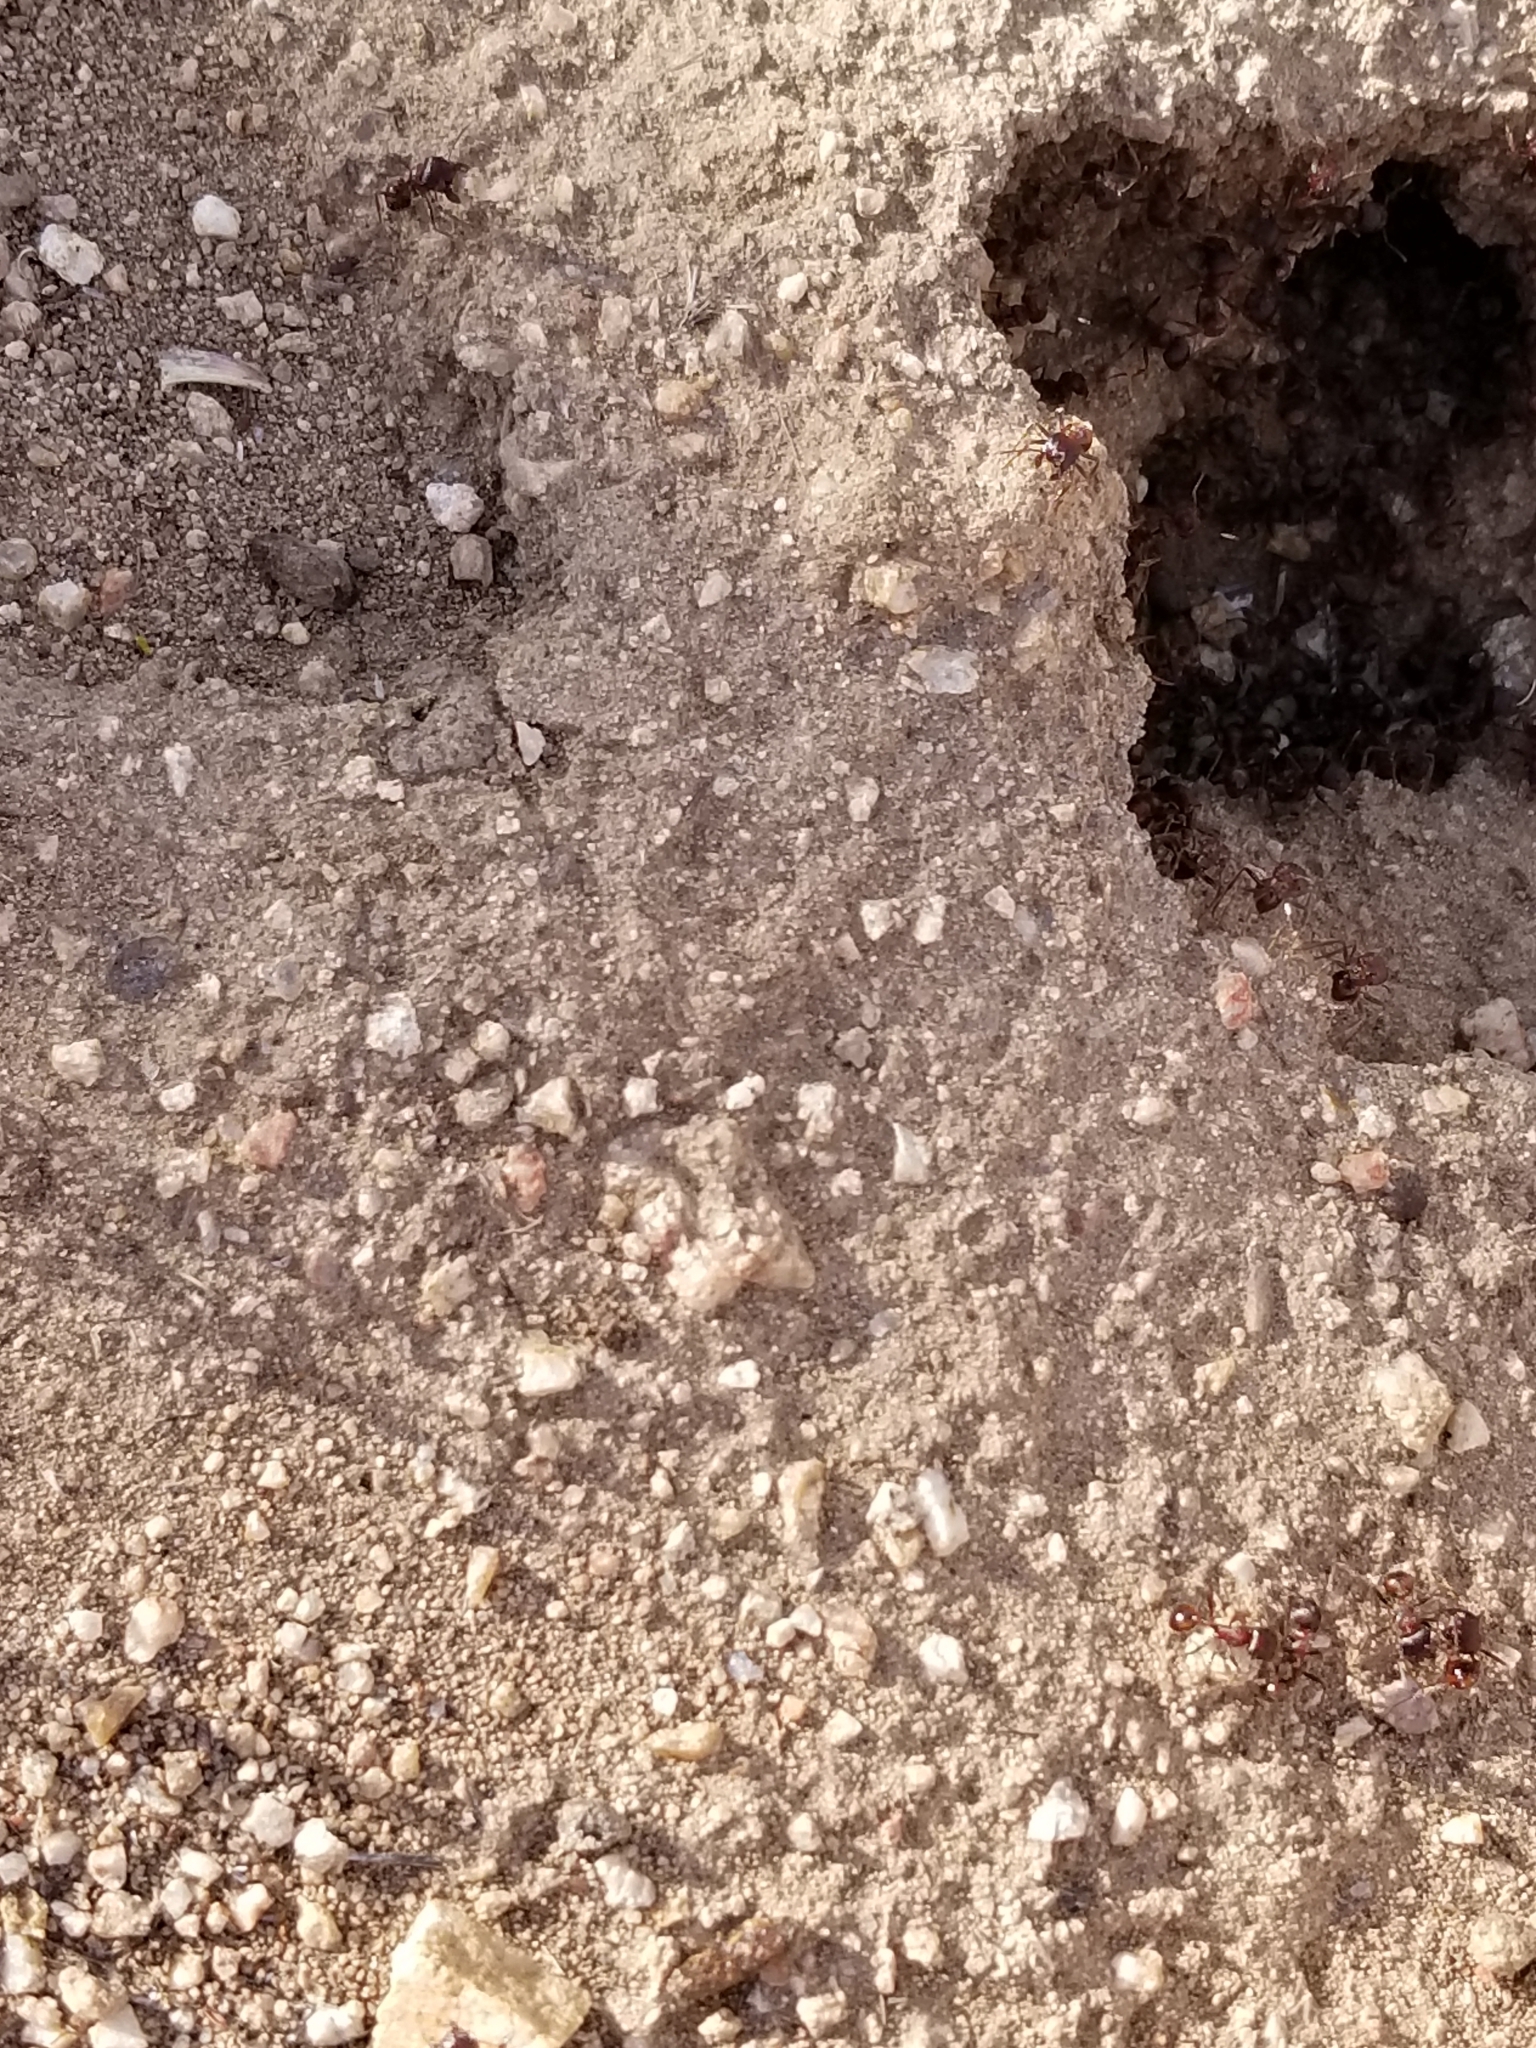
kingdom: Animalia
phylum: Arthropoda
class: Insecta
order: Hymenoptera
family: Formicidae
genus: Pogonomyrmex
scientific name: Pogonomyrmex rugosus
